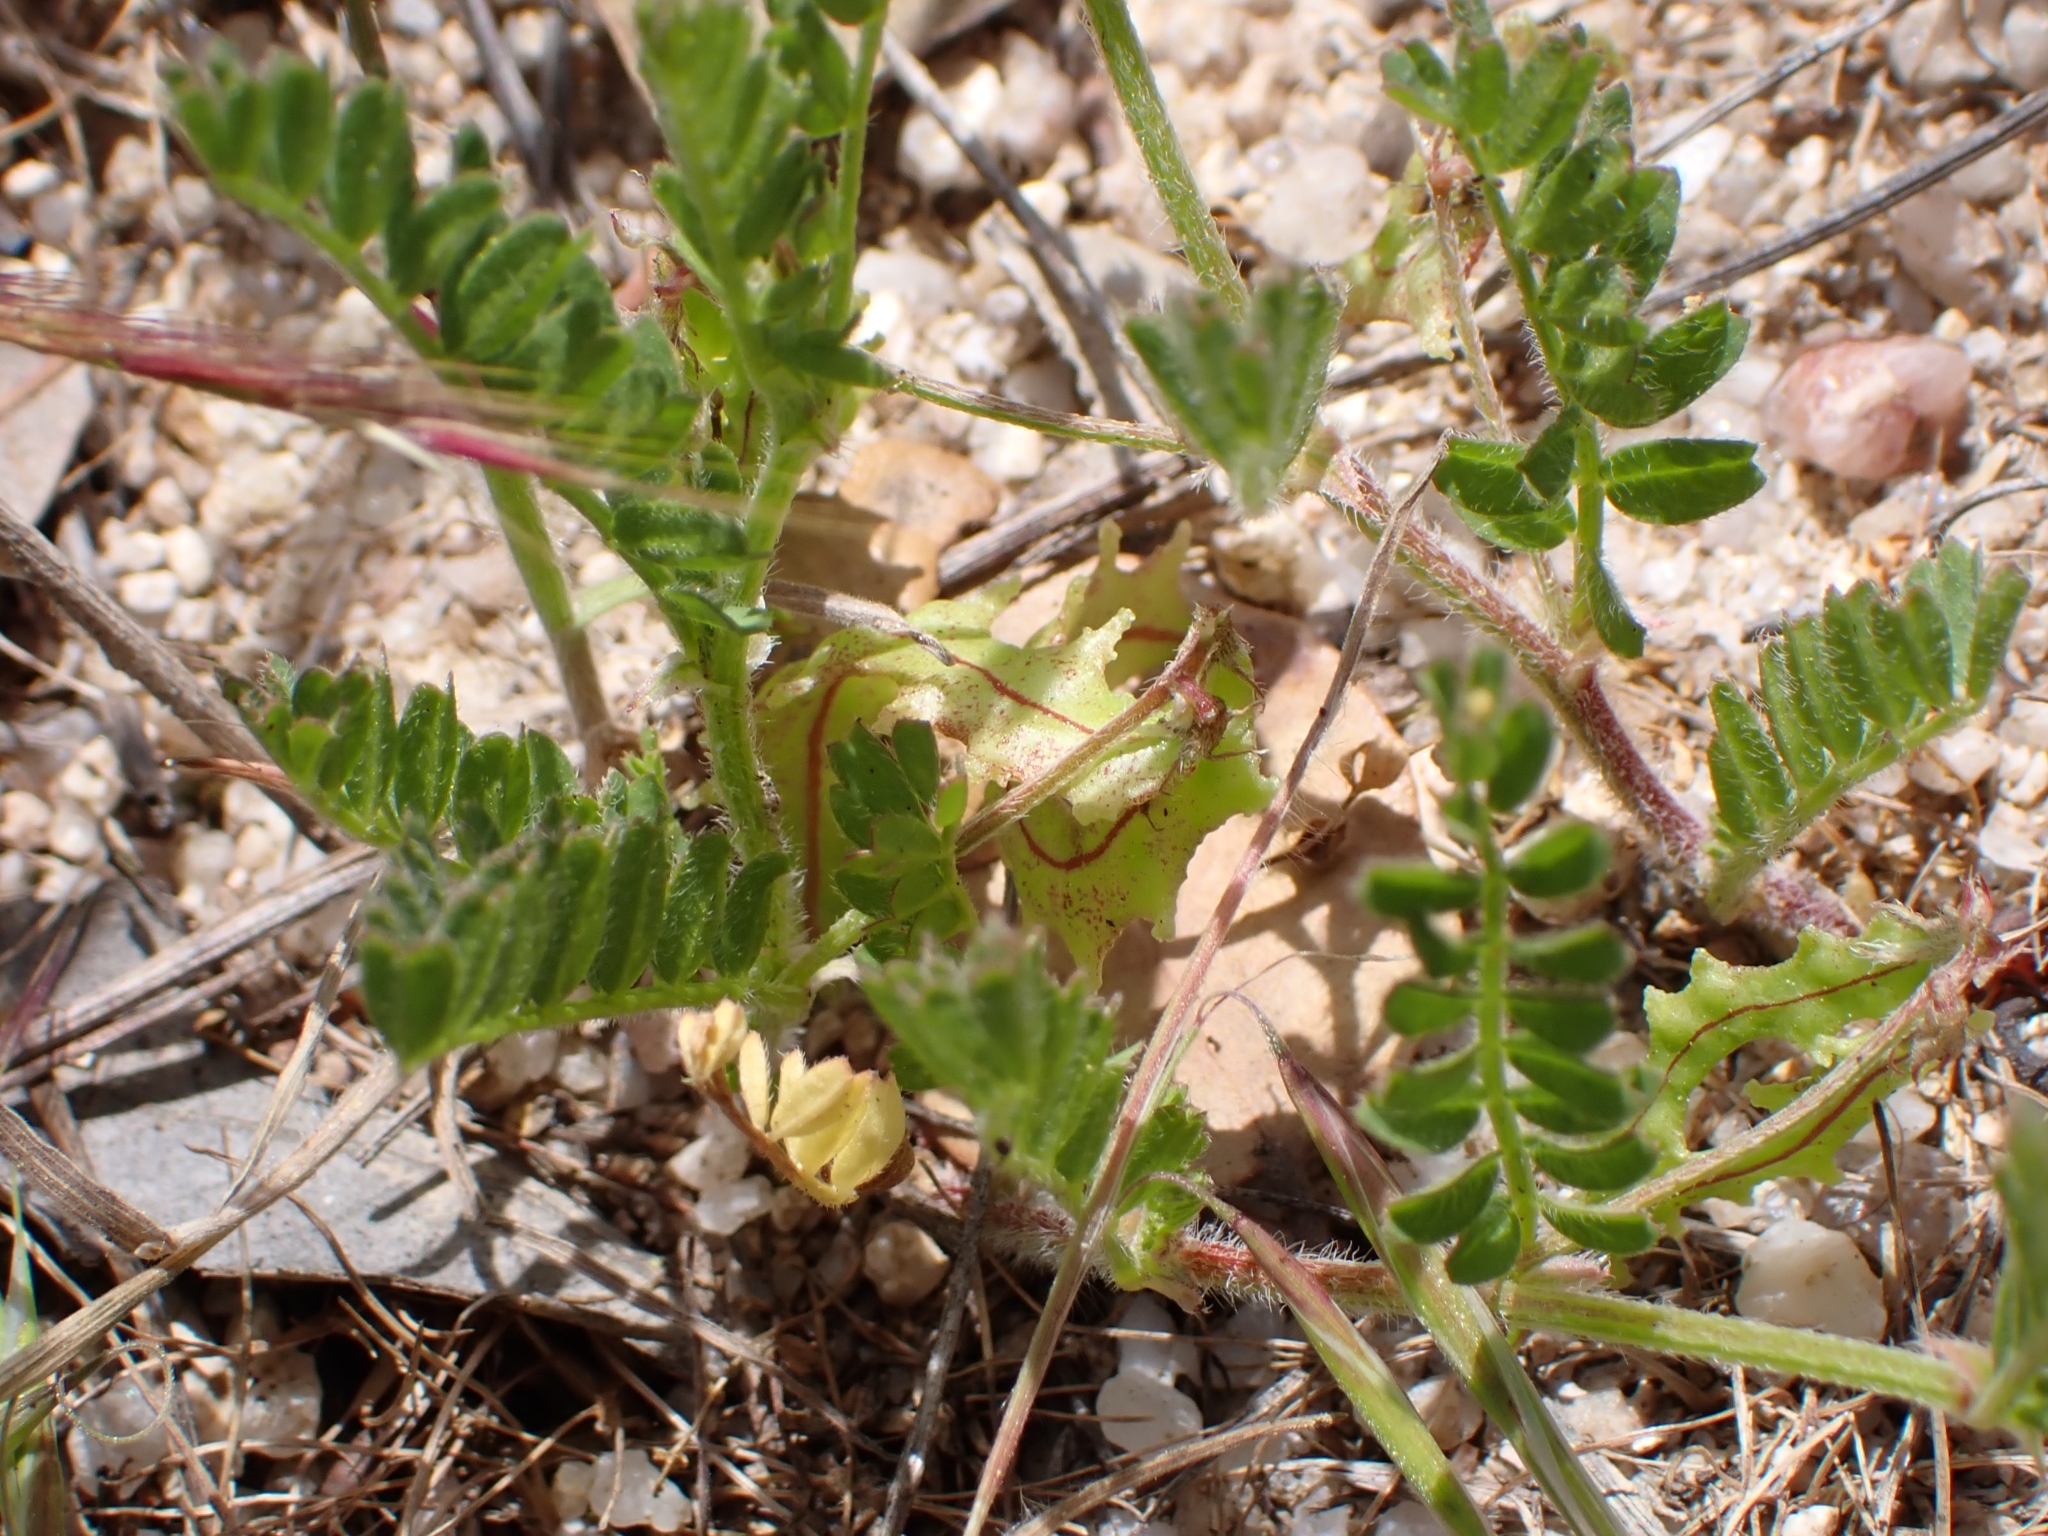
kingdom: Plantae
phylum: Tracheophyta
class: Magnoliopsida
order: Fabales
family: Fabaceae
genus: Biserrula
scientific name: Biserrula pelecinus
